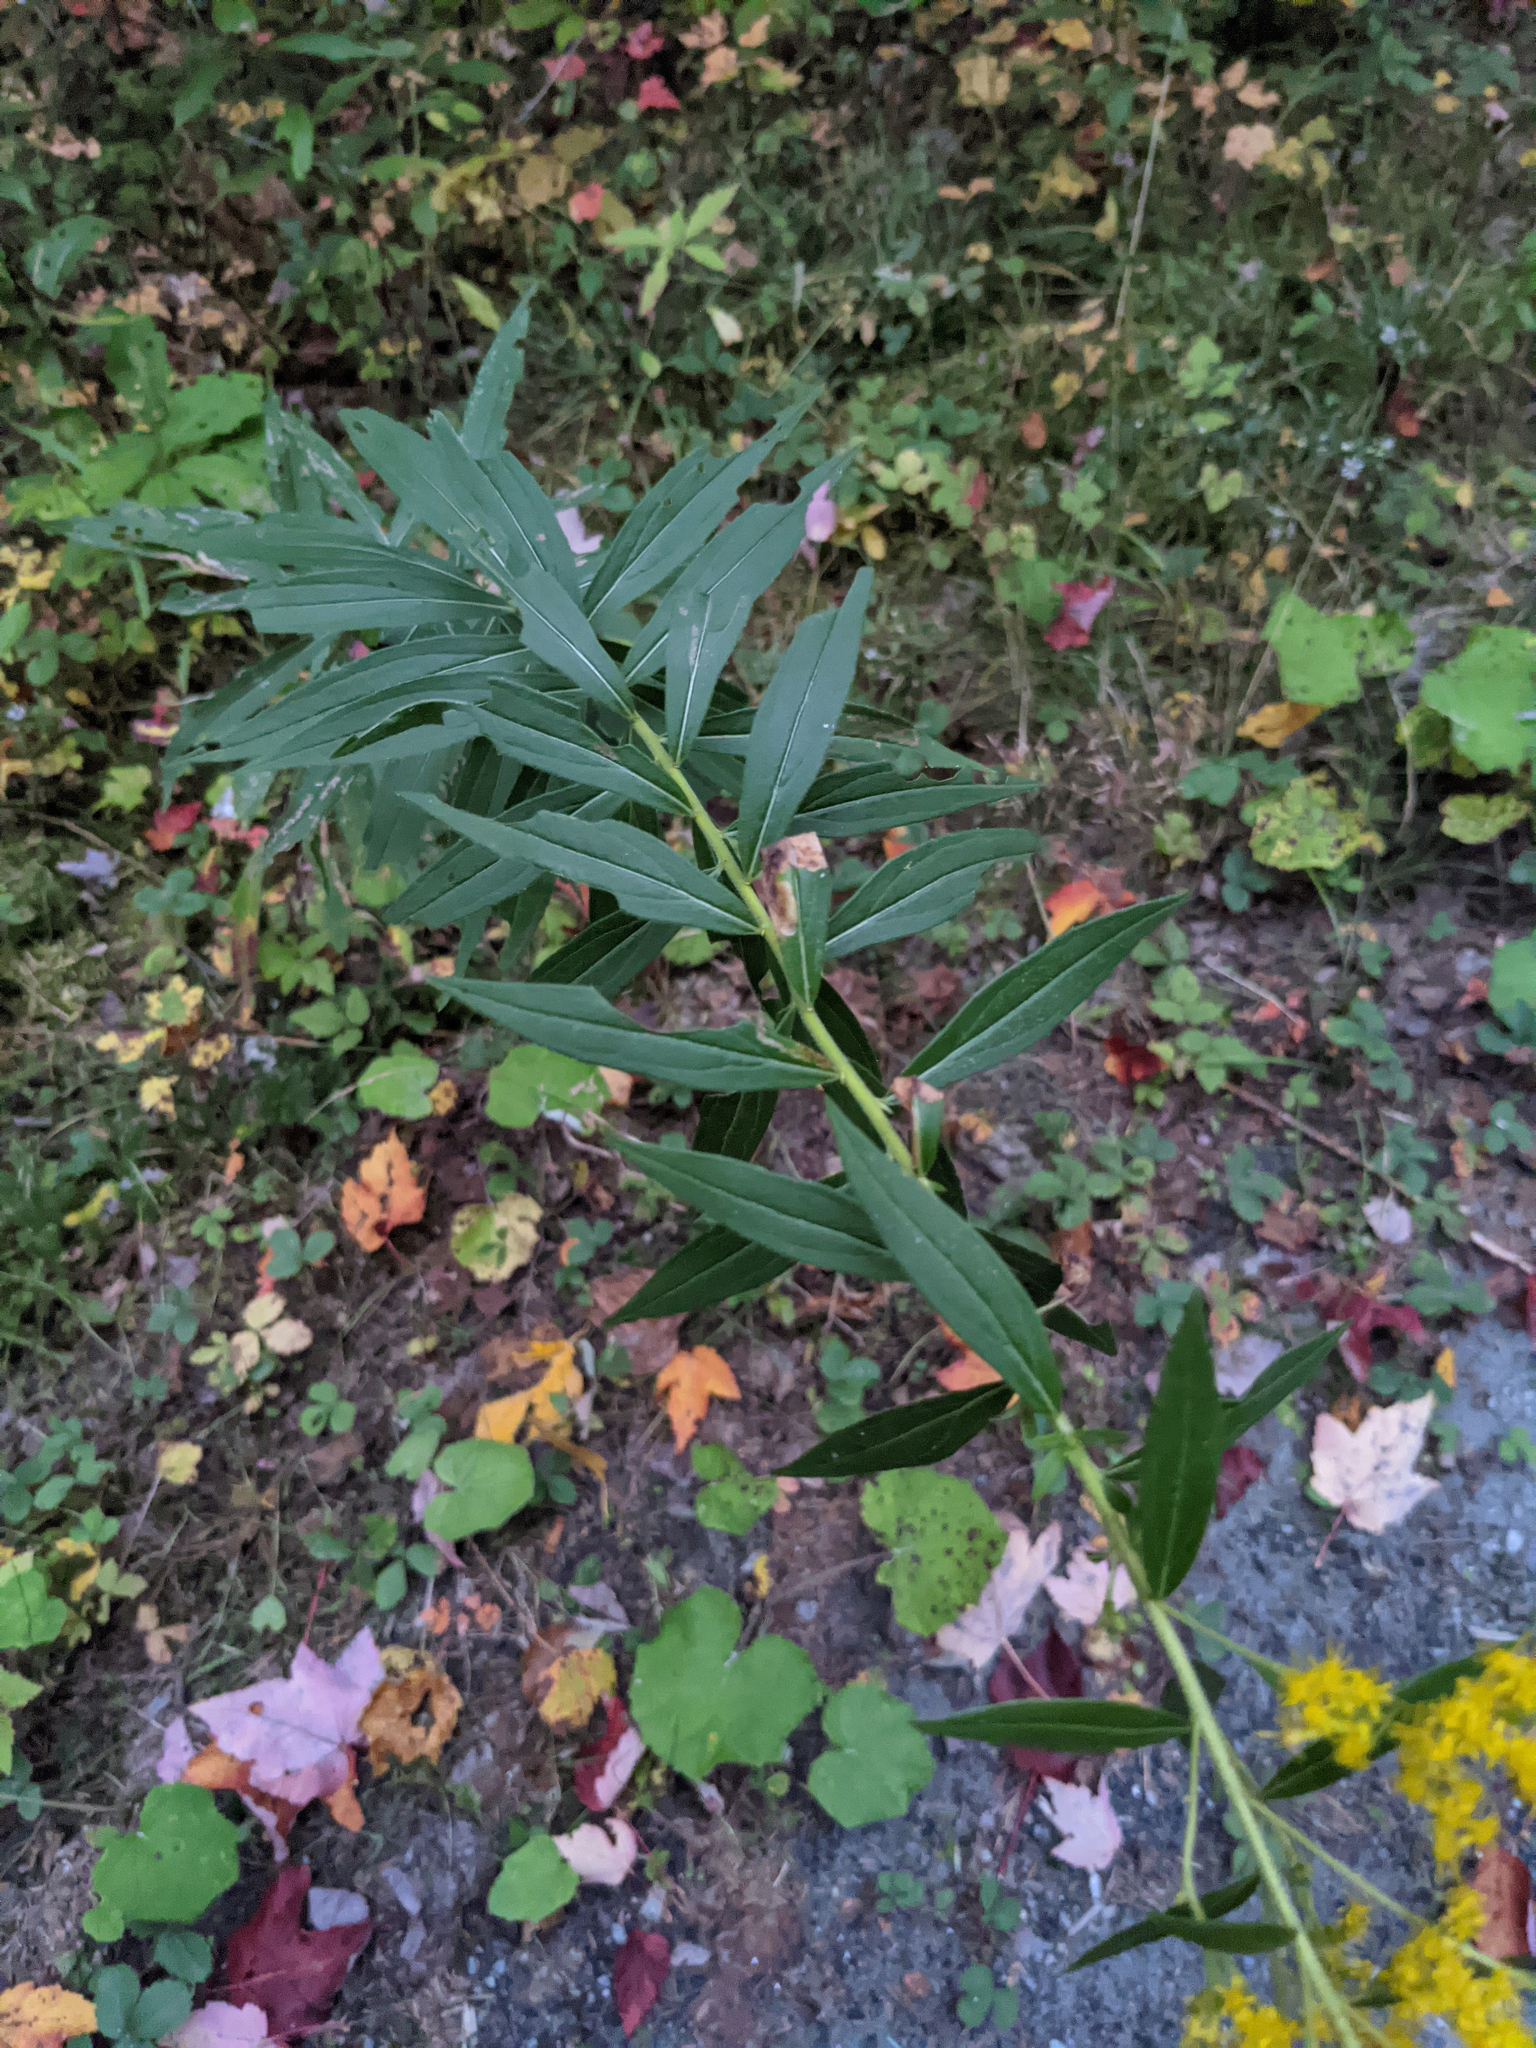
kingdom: Plantae
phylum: Tracheophyta
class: Magnoliopsida
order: Asterales
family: Asteraceae
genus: Solidago
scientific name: Solidago canadensis
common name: Canada goldenrod
